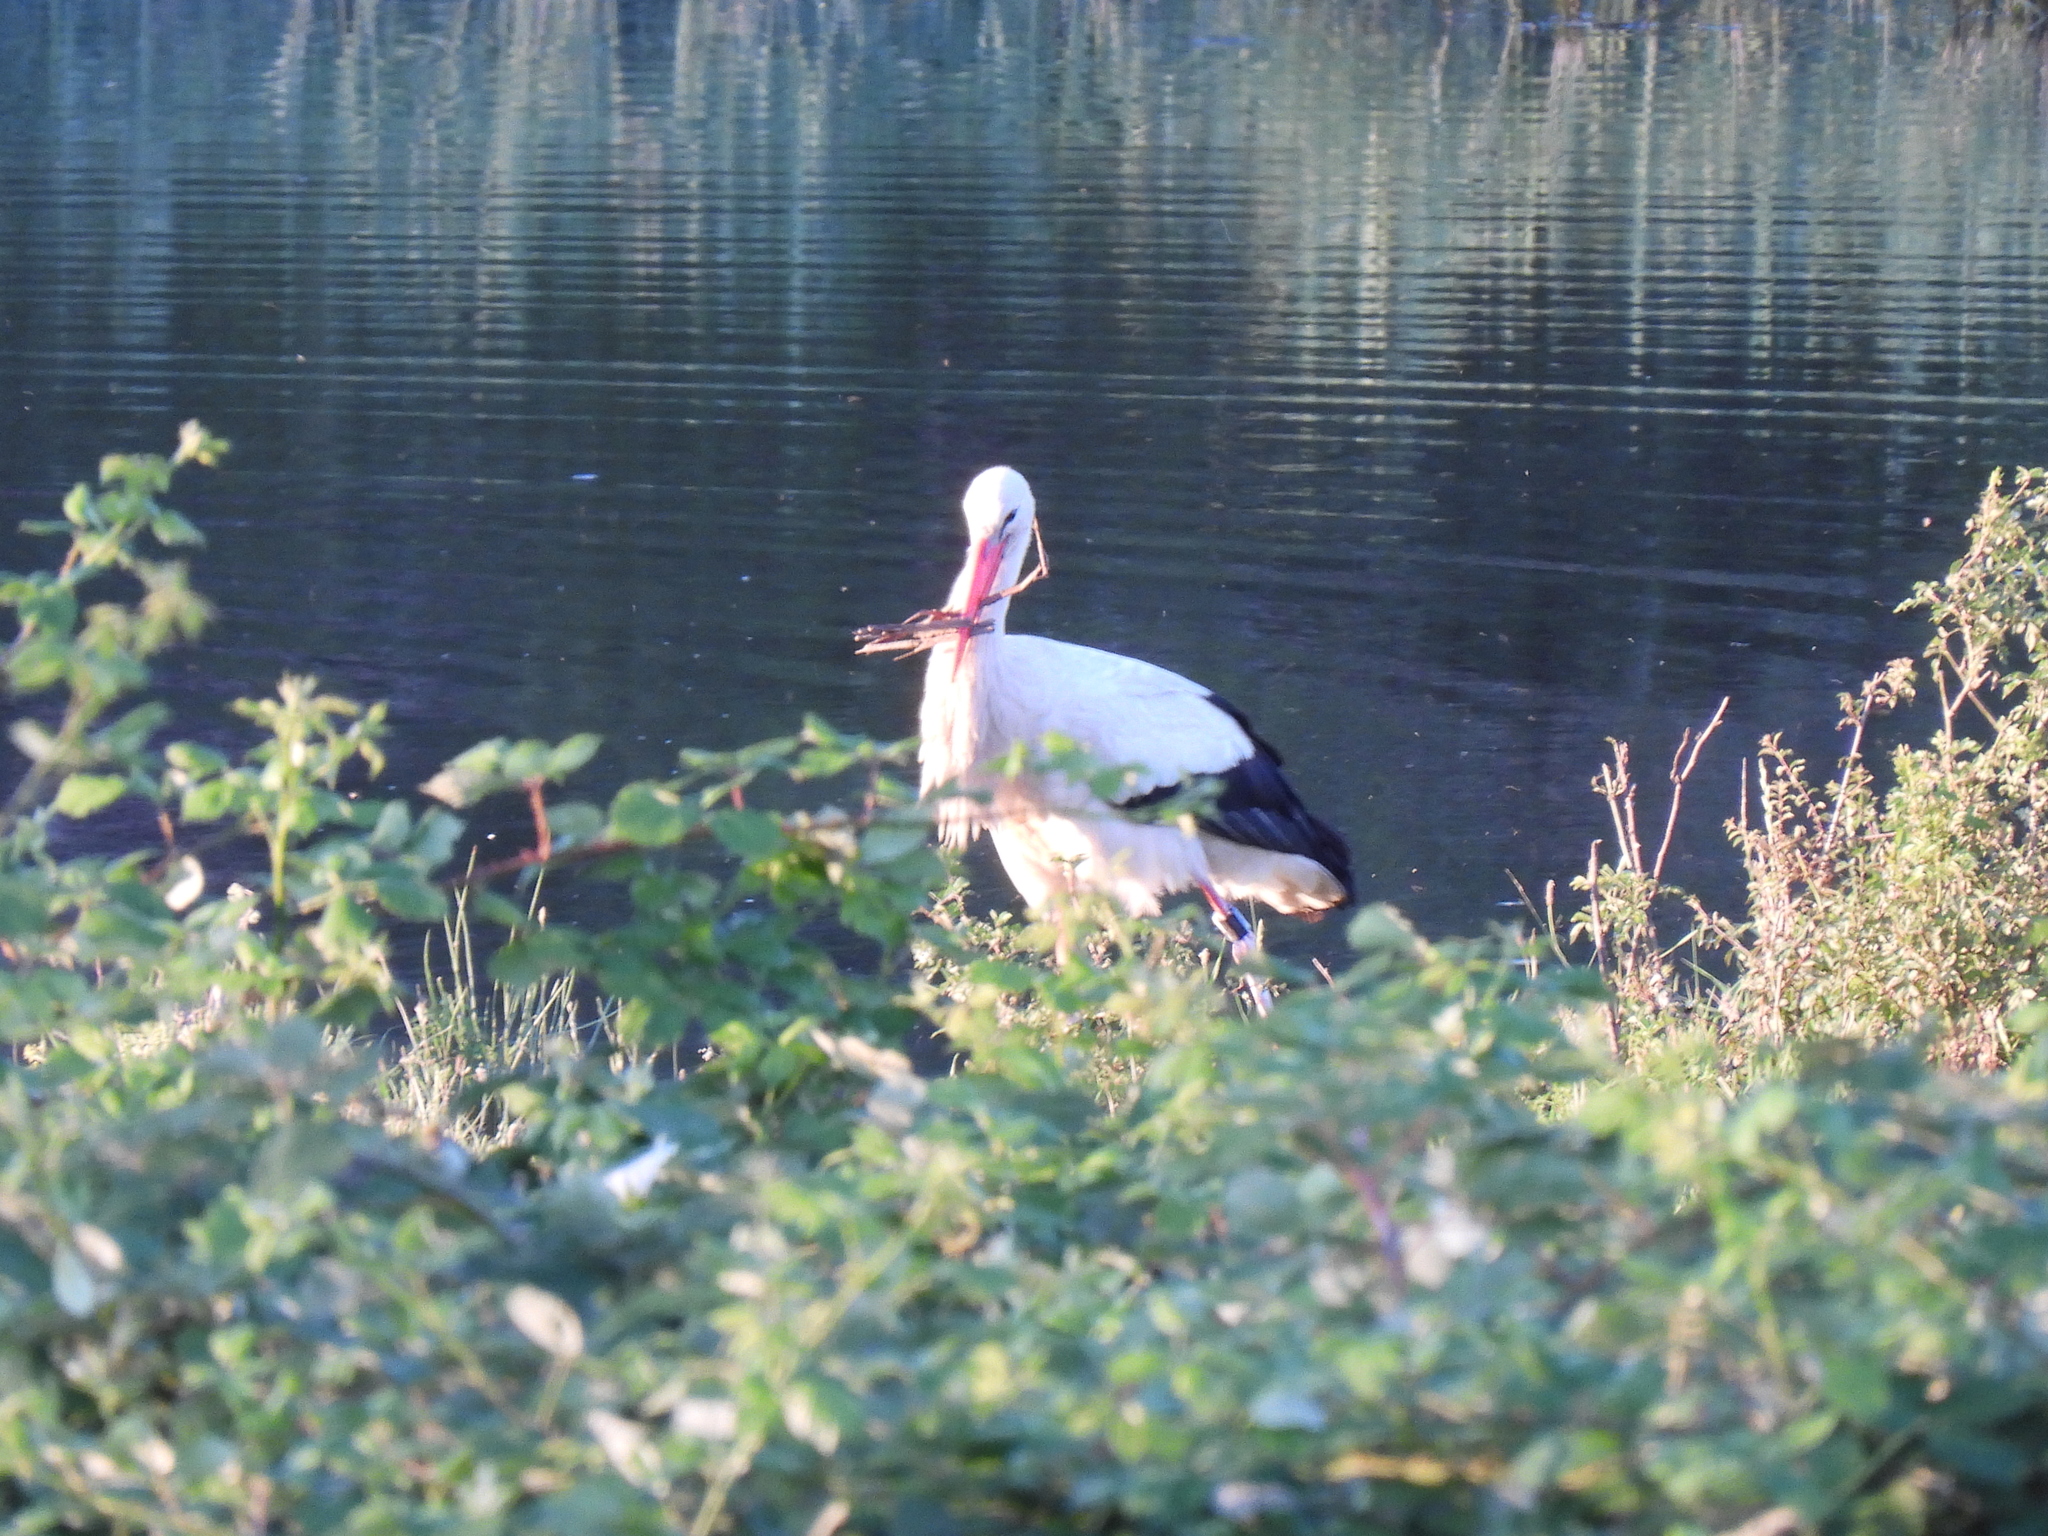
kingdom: Animalia
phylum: Chordata
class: Aves
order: Ciconiiformes
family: Ciconiidae
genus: Ciconia
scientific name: Ciconia ciconia
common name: White stork
